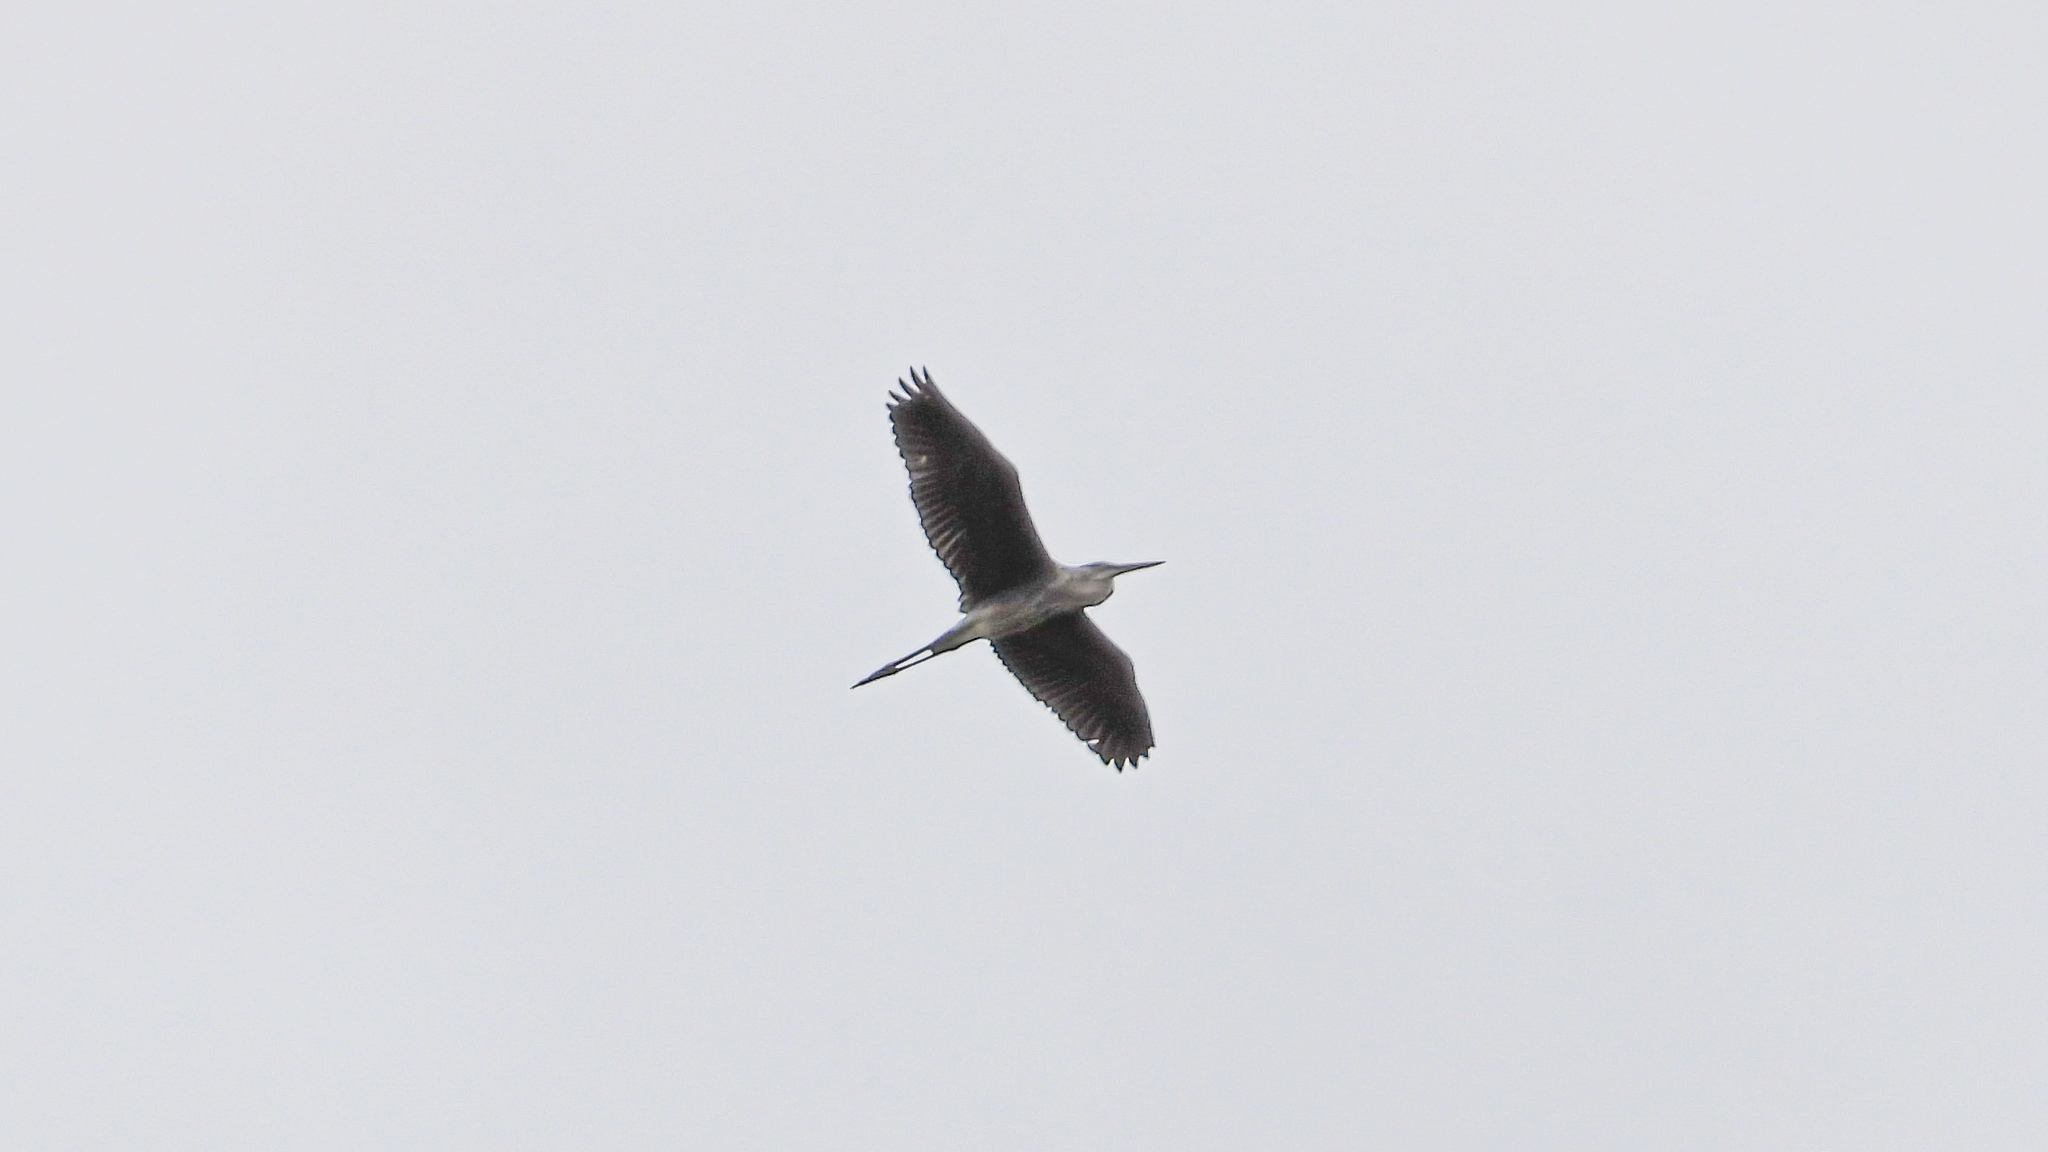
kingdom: Animalia
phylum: Chordata
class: Aves
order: Pelecaniformes
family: Ardeidae
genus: Ardea
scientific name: Ardea herodias
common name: Great blue heron
